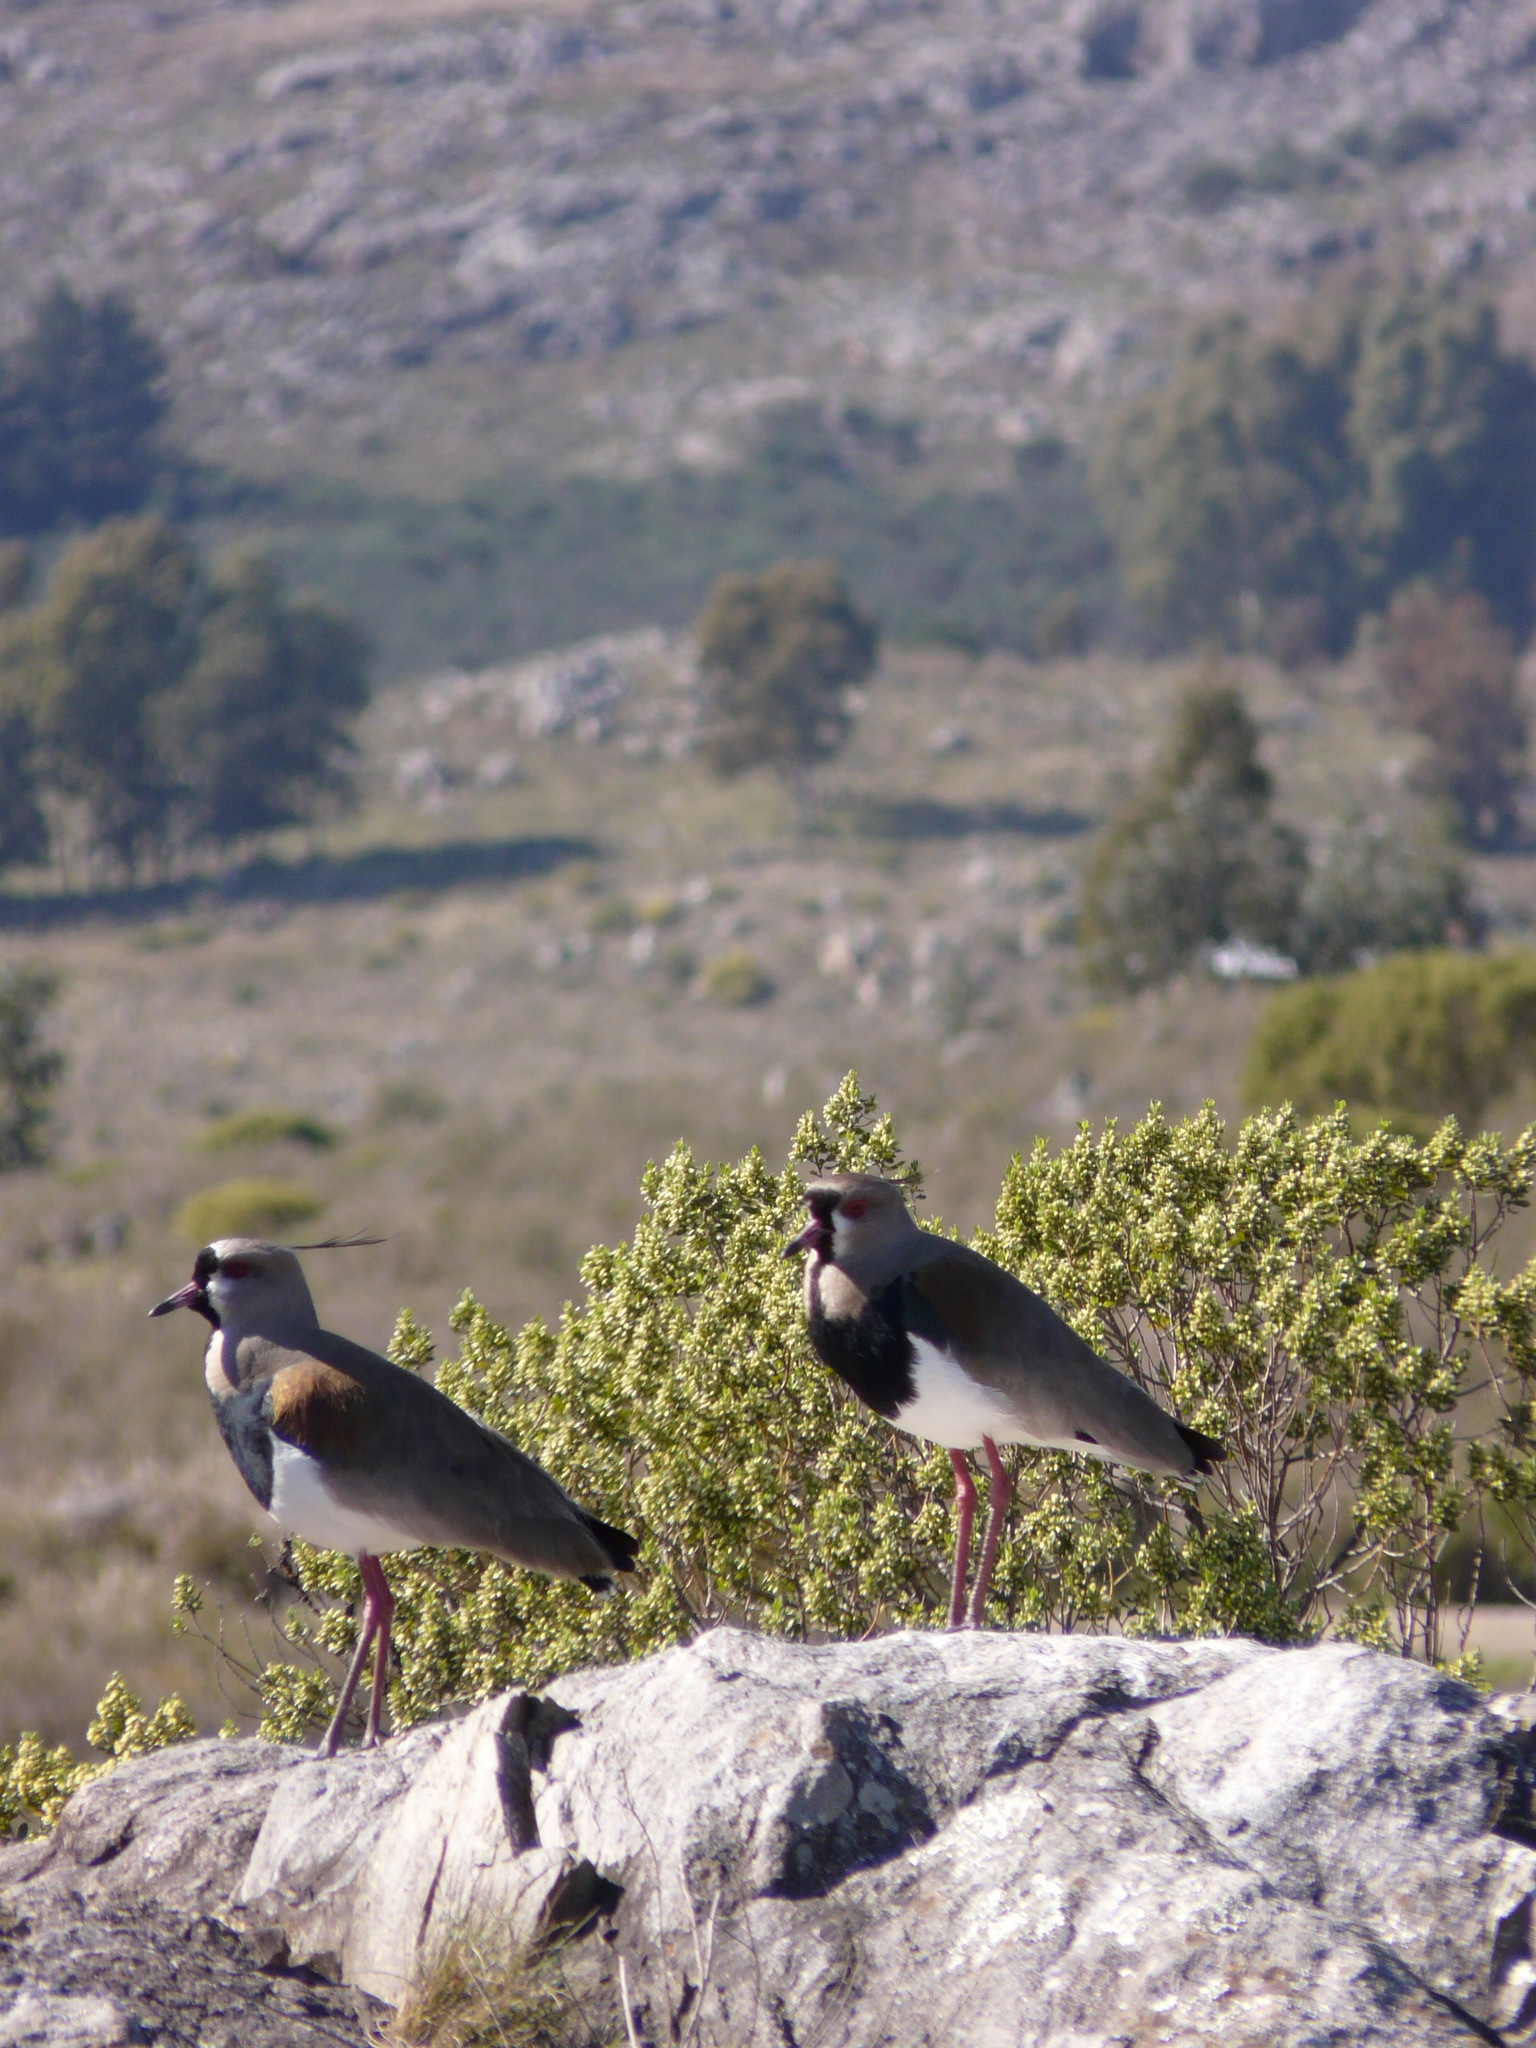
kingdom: Animalia
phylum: Chordata
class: Aves
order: Charadriiformes
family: Charadriidae
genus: Vanellus
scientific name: Vanellus chilensis
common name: Southern lapwing
